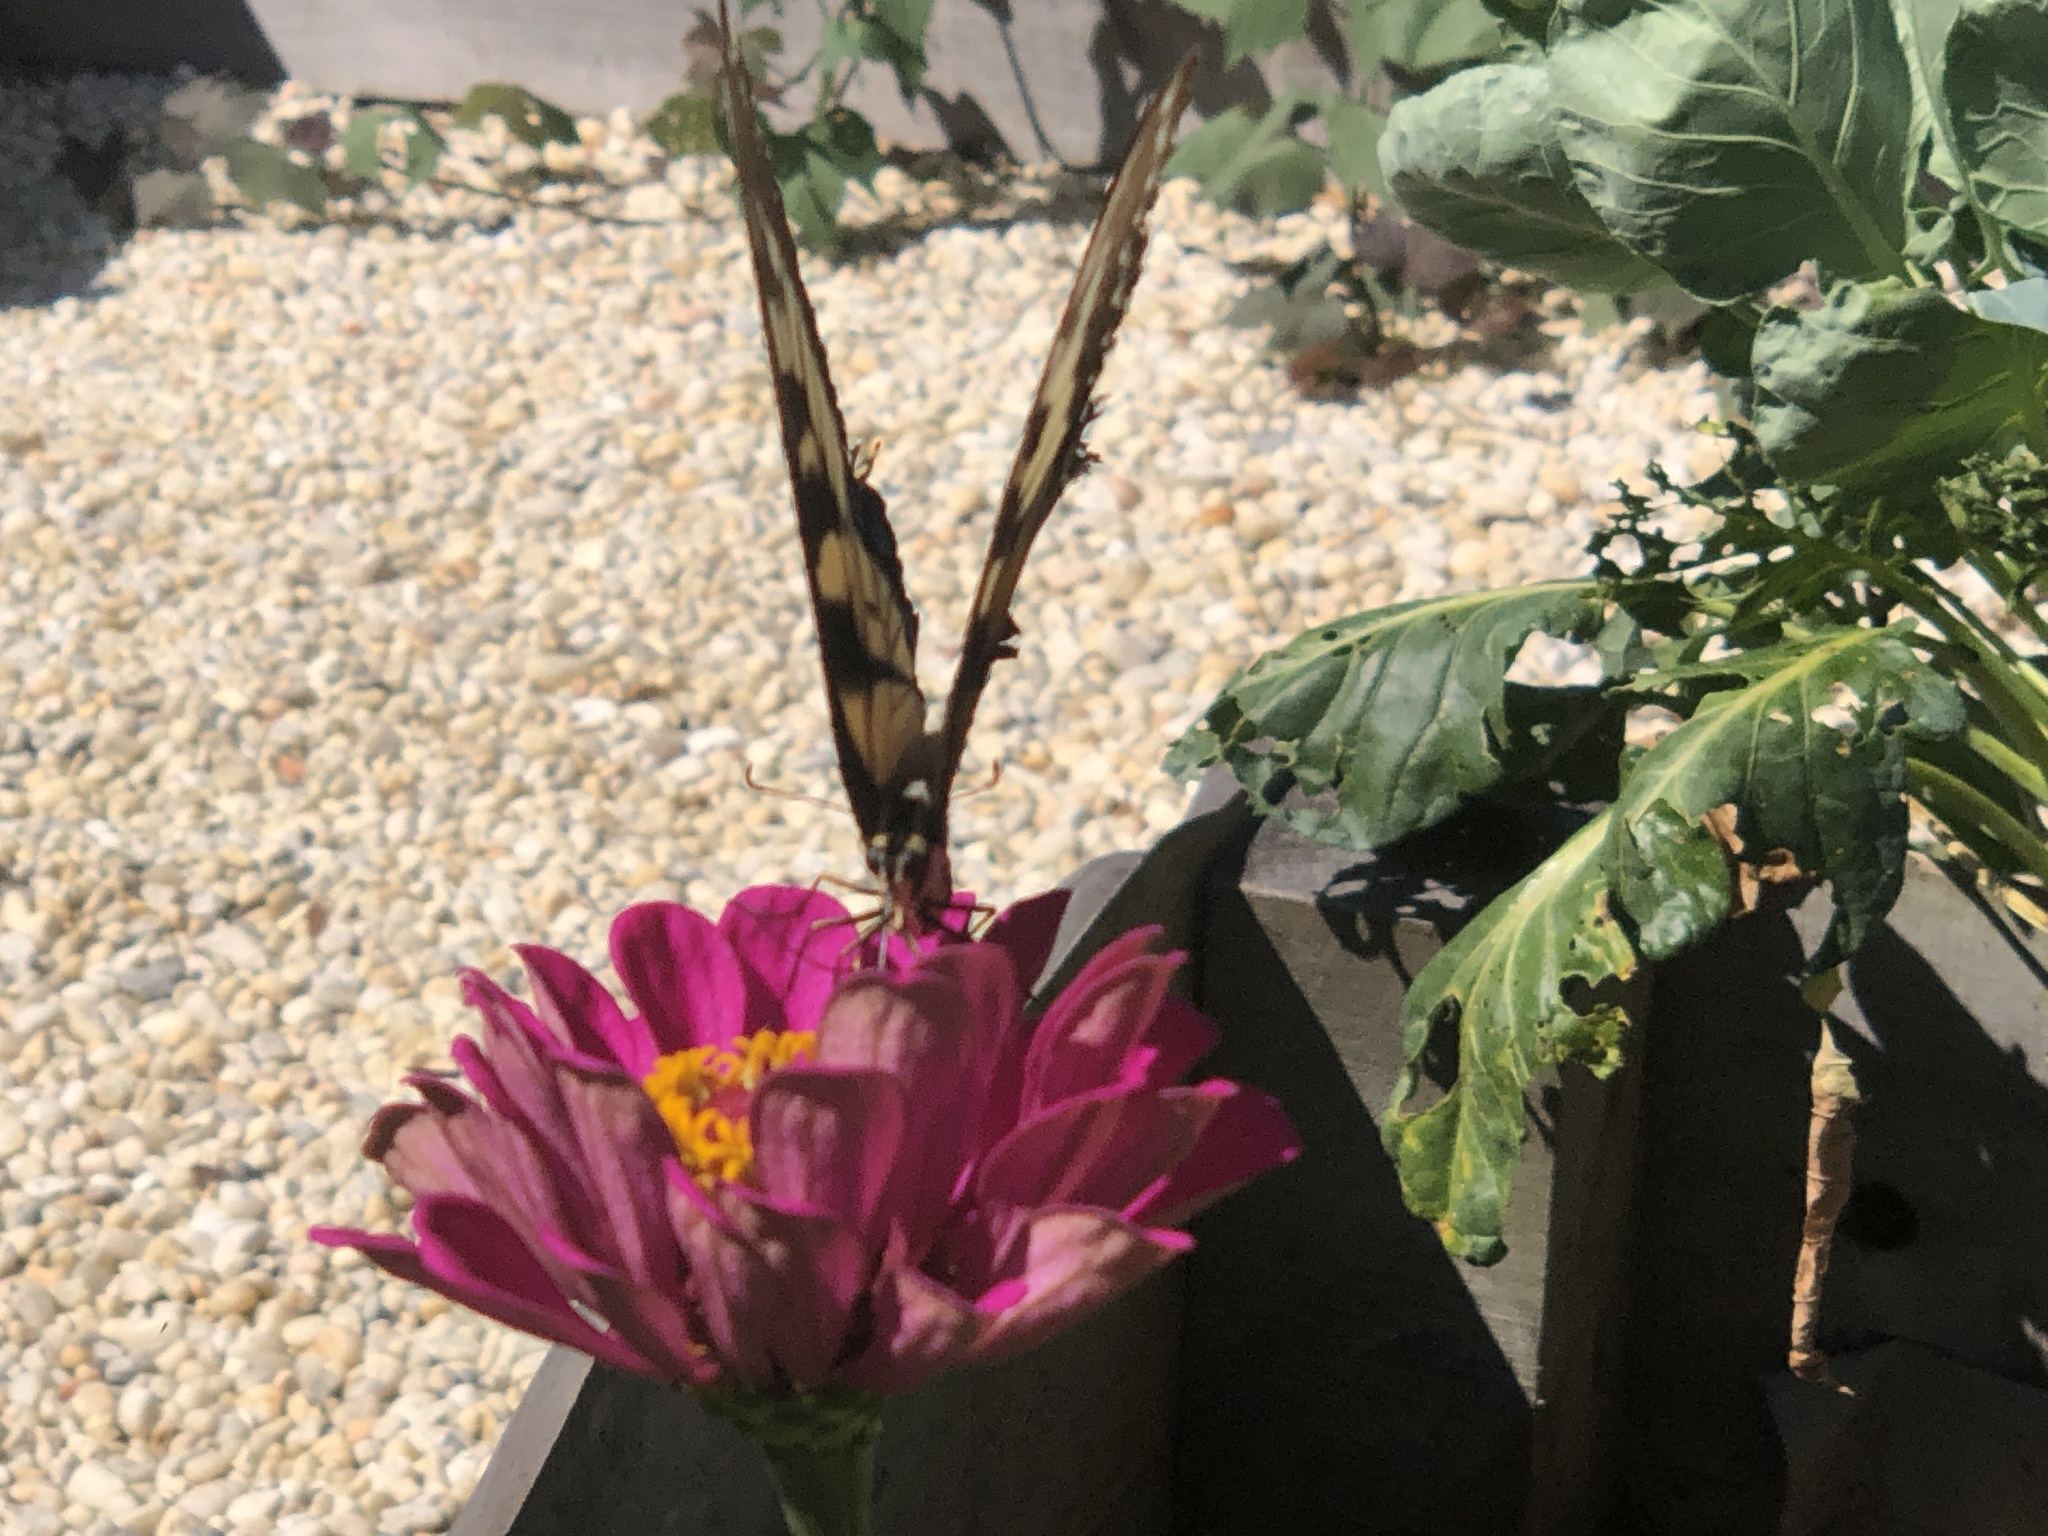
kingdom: Animalia
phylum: Arthropoda
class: Insecta
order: Lepidoptera
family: Papilionidae
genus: Papilio
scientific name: Papilio glaucus
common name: Tiger swallowtail
